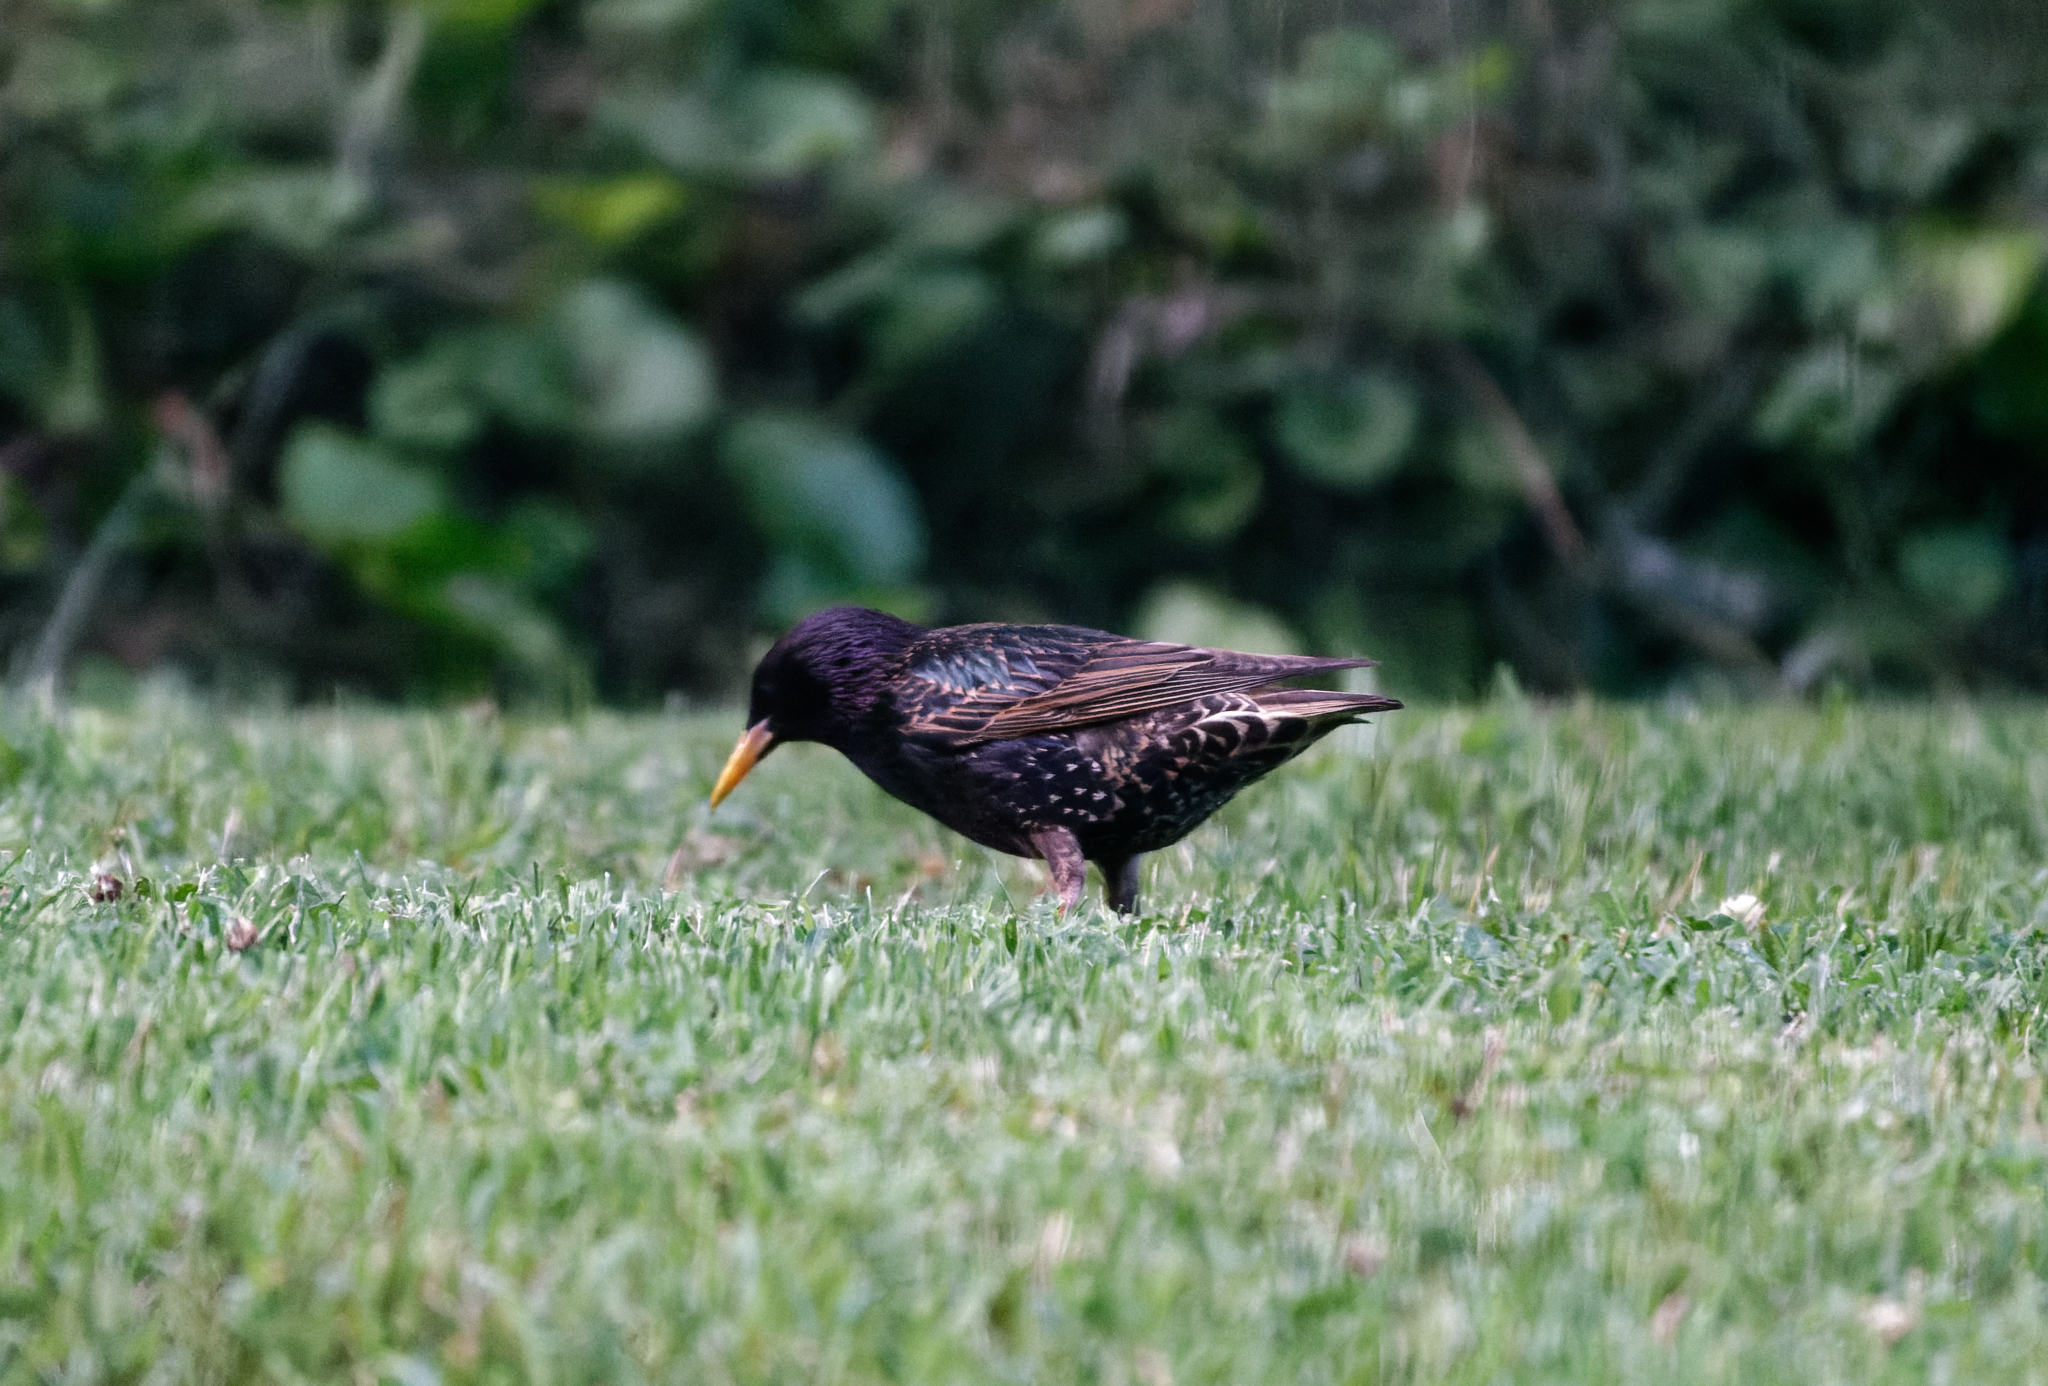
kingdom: Animalia
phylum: Chordata
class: Aves
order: Passeriformes
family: Sturnidae
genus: Sturnus
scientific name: Sturnus vulgaris
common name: Common starling
